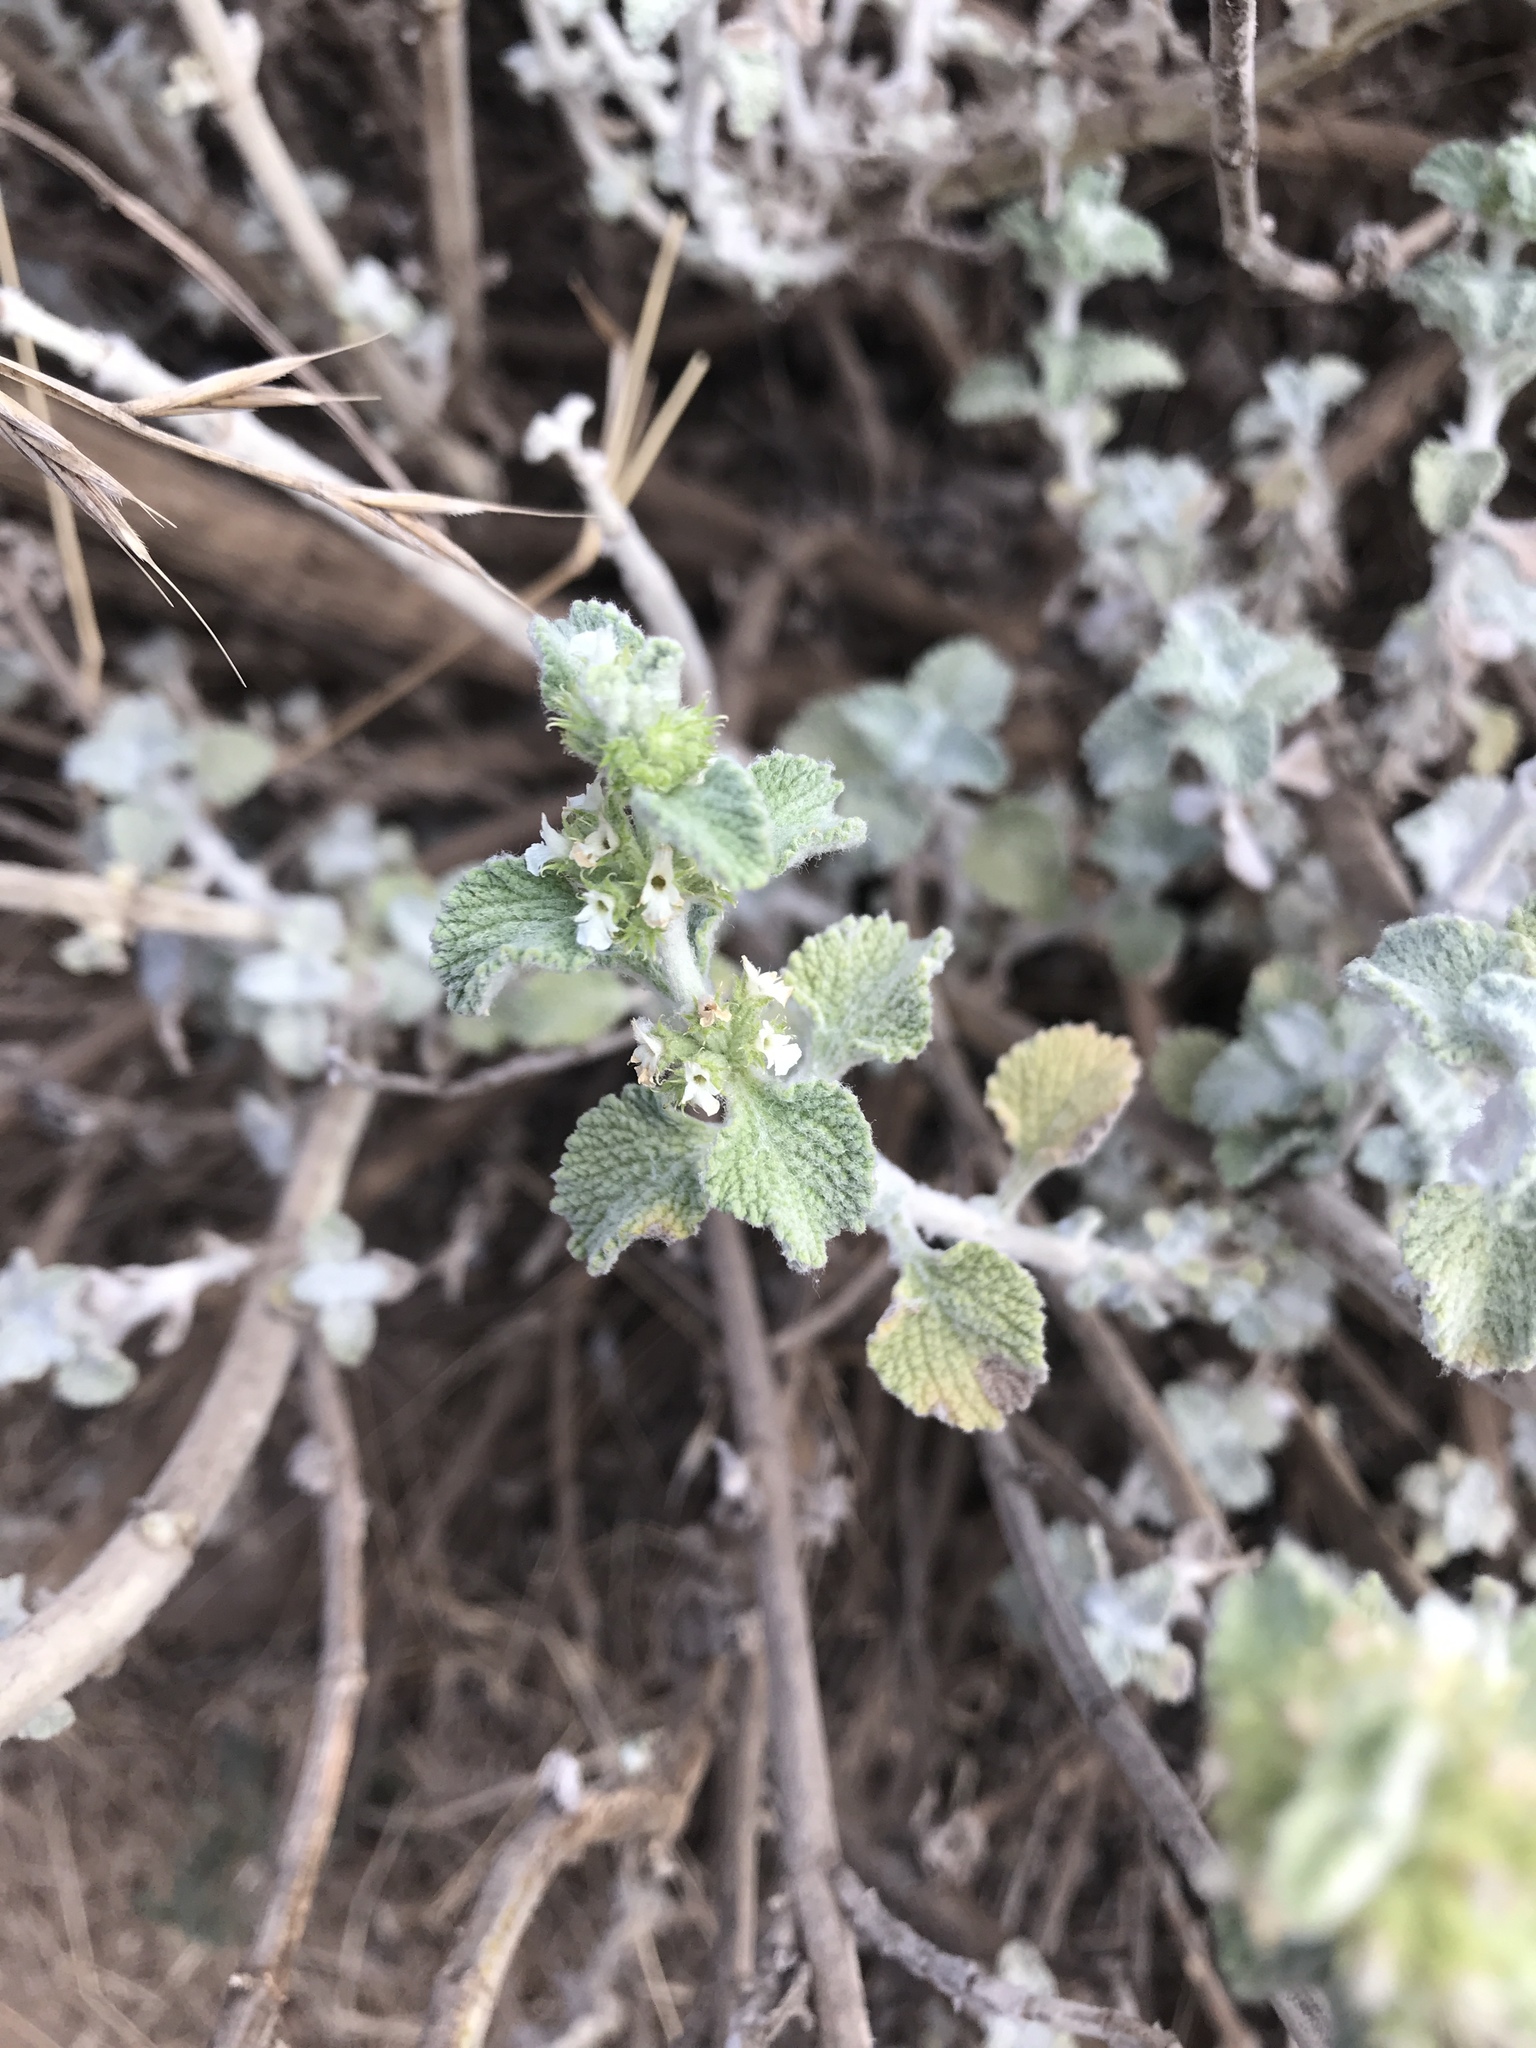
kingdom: Plantae
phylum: Tracheophyta
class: Magnoliopsida
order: Lamiales
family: Lamiaceae
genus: Marrubium
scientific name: Marrubium vulgare
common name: Horehound
